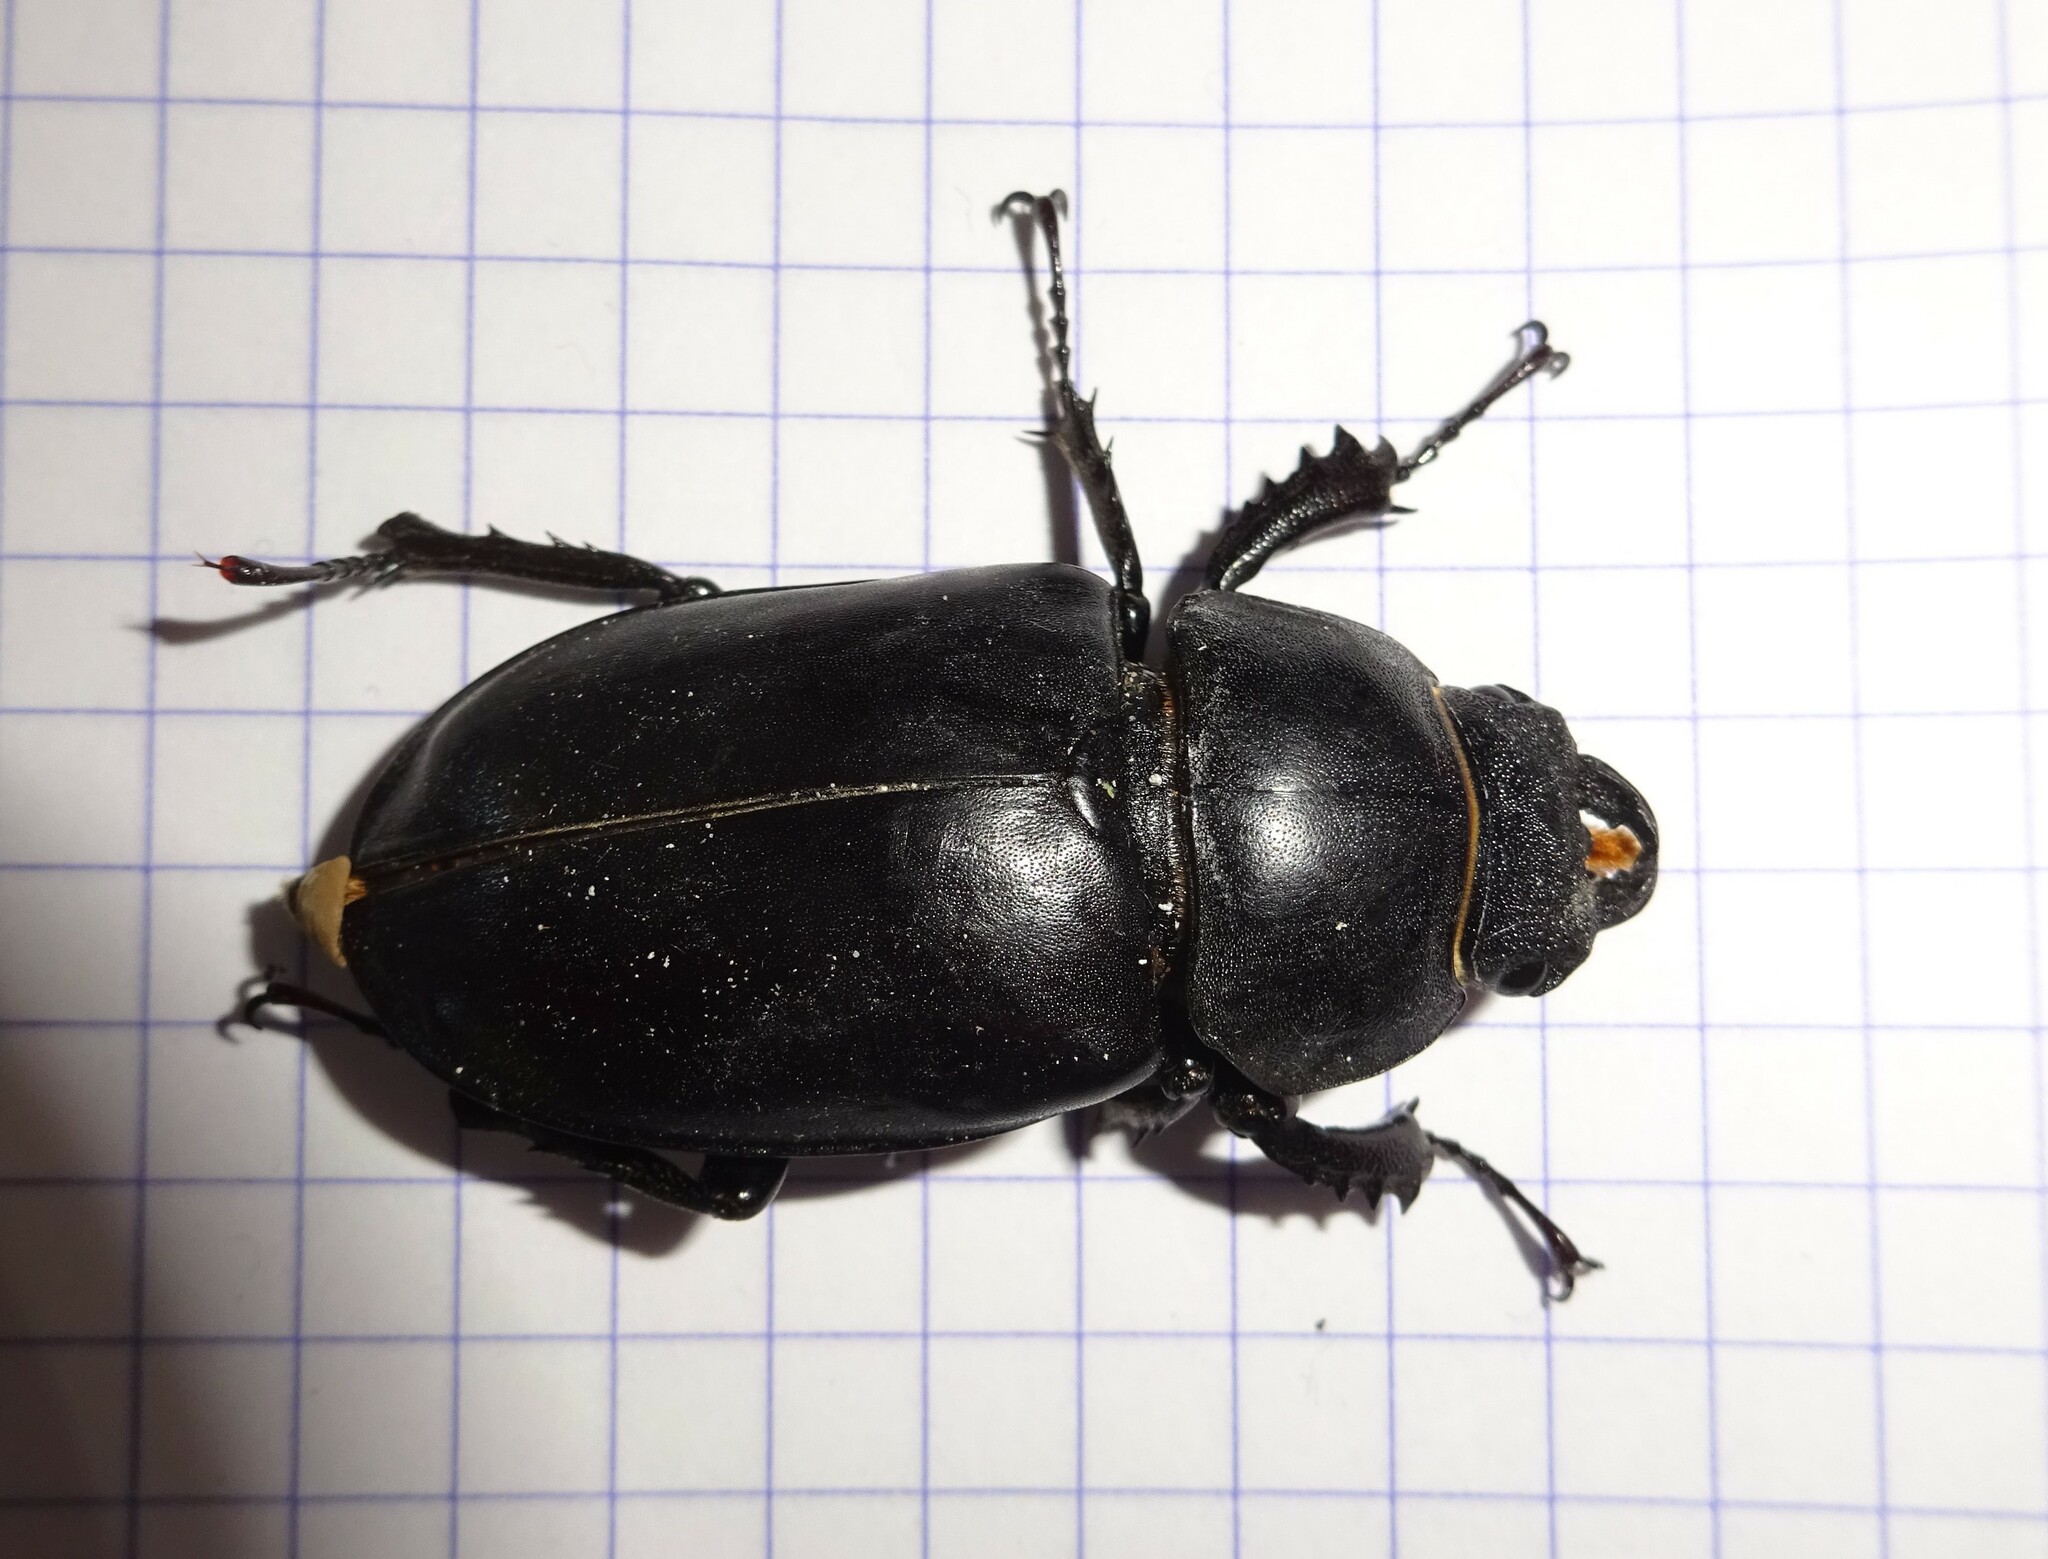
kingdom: Animalia
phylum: Arthropoda
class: Insecta
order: Coleoptera
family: Lucanidae
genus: Lucanus
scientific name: Lucanus cervus
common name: Stag beetle
